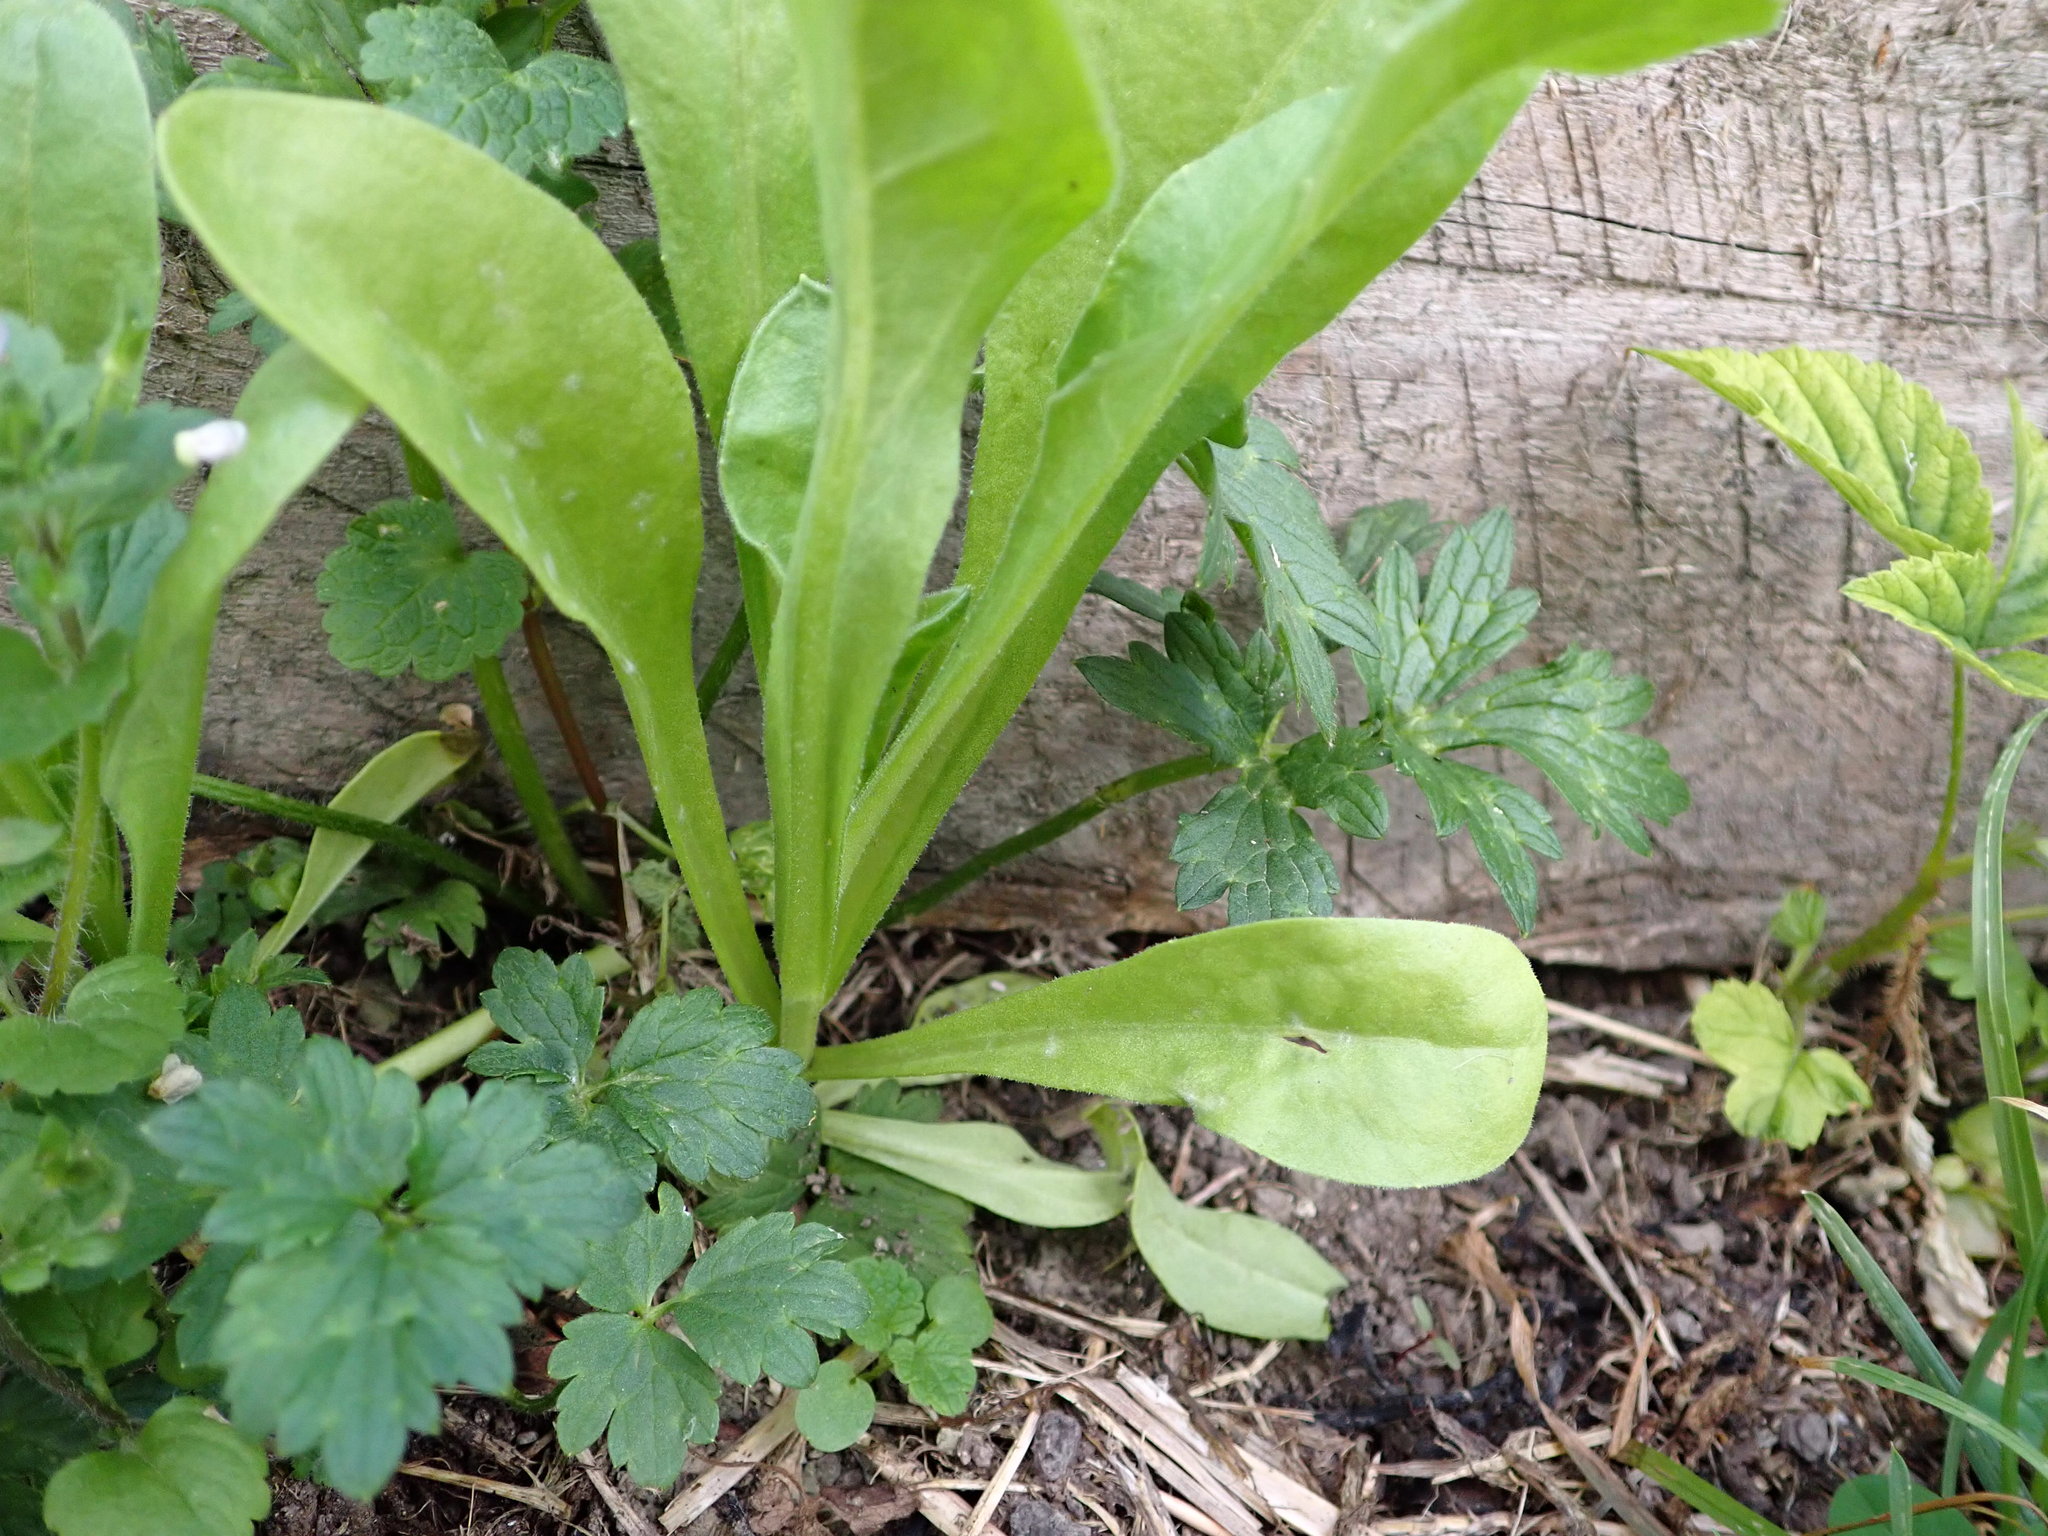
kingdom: Plantae
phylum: Tracheophyta
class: Magnoliopsida
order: Asterales
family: Asteraceae
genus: Calendula
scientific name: Calendula officinalis
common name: Pot marigold
